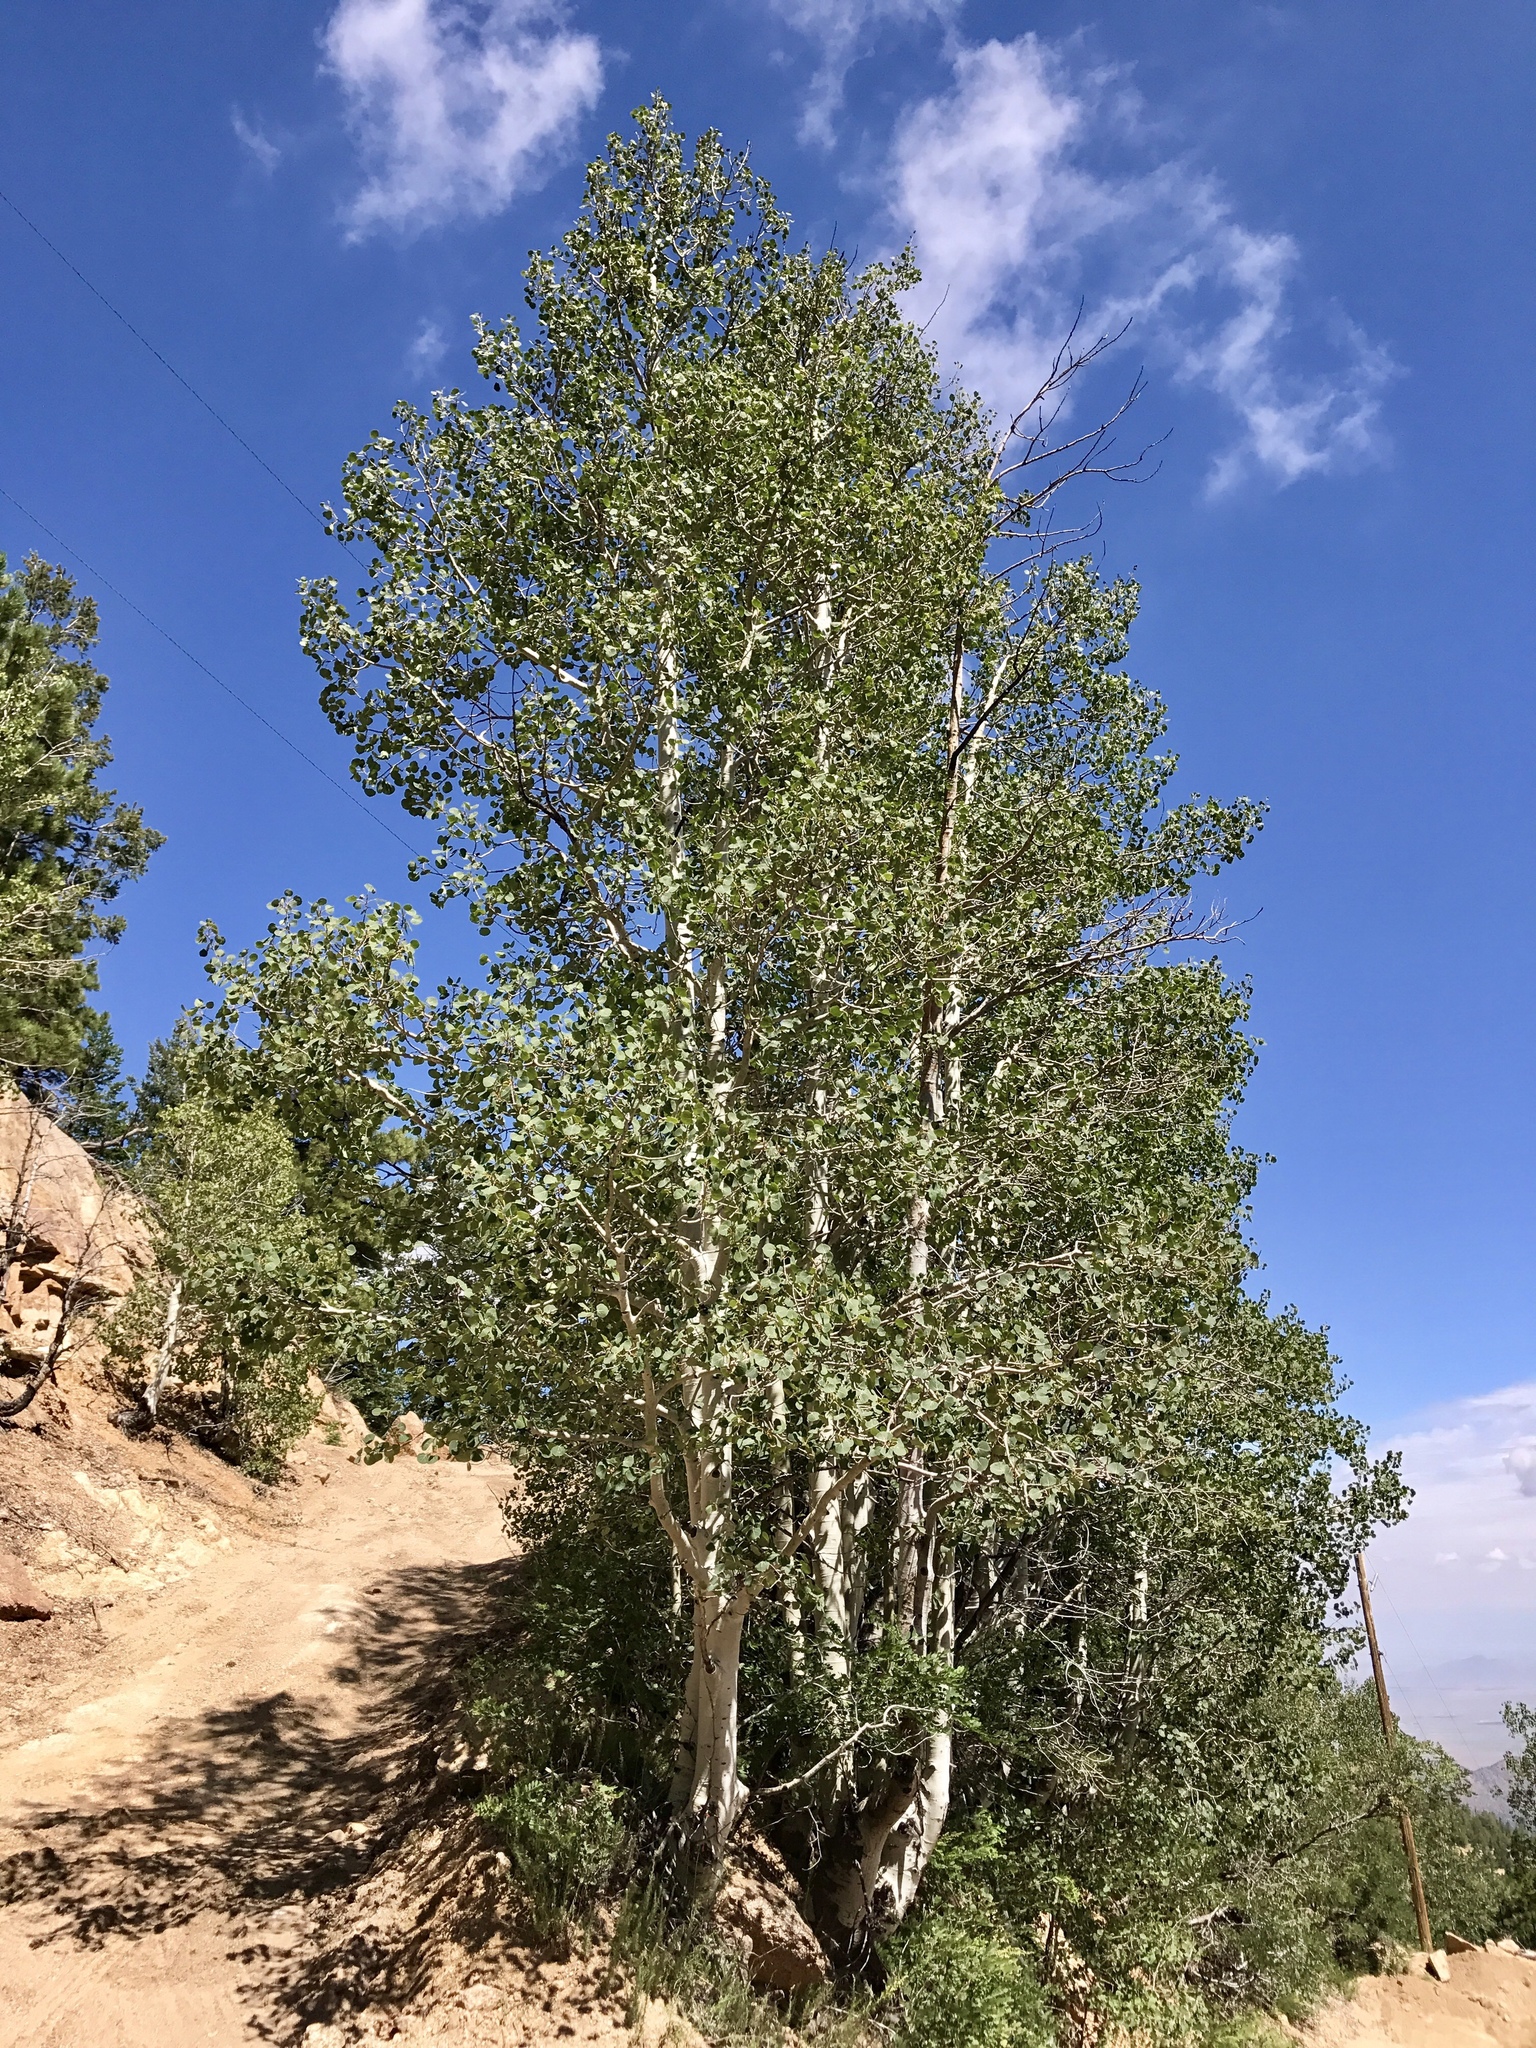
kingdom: Plantae
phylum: Tracheophyta
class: Magnoliopsida
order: Malpighiales
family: Salicaceae
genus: Populus
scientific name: Populus tremuloides
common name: Quaking aspen
